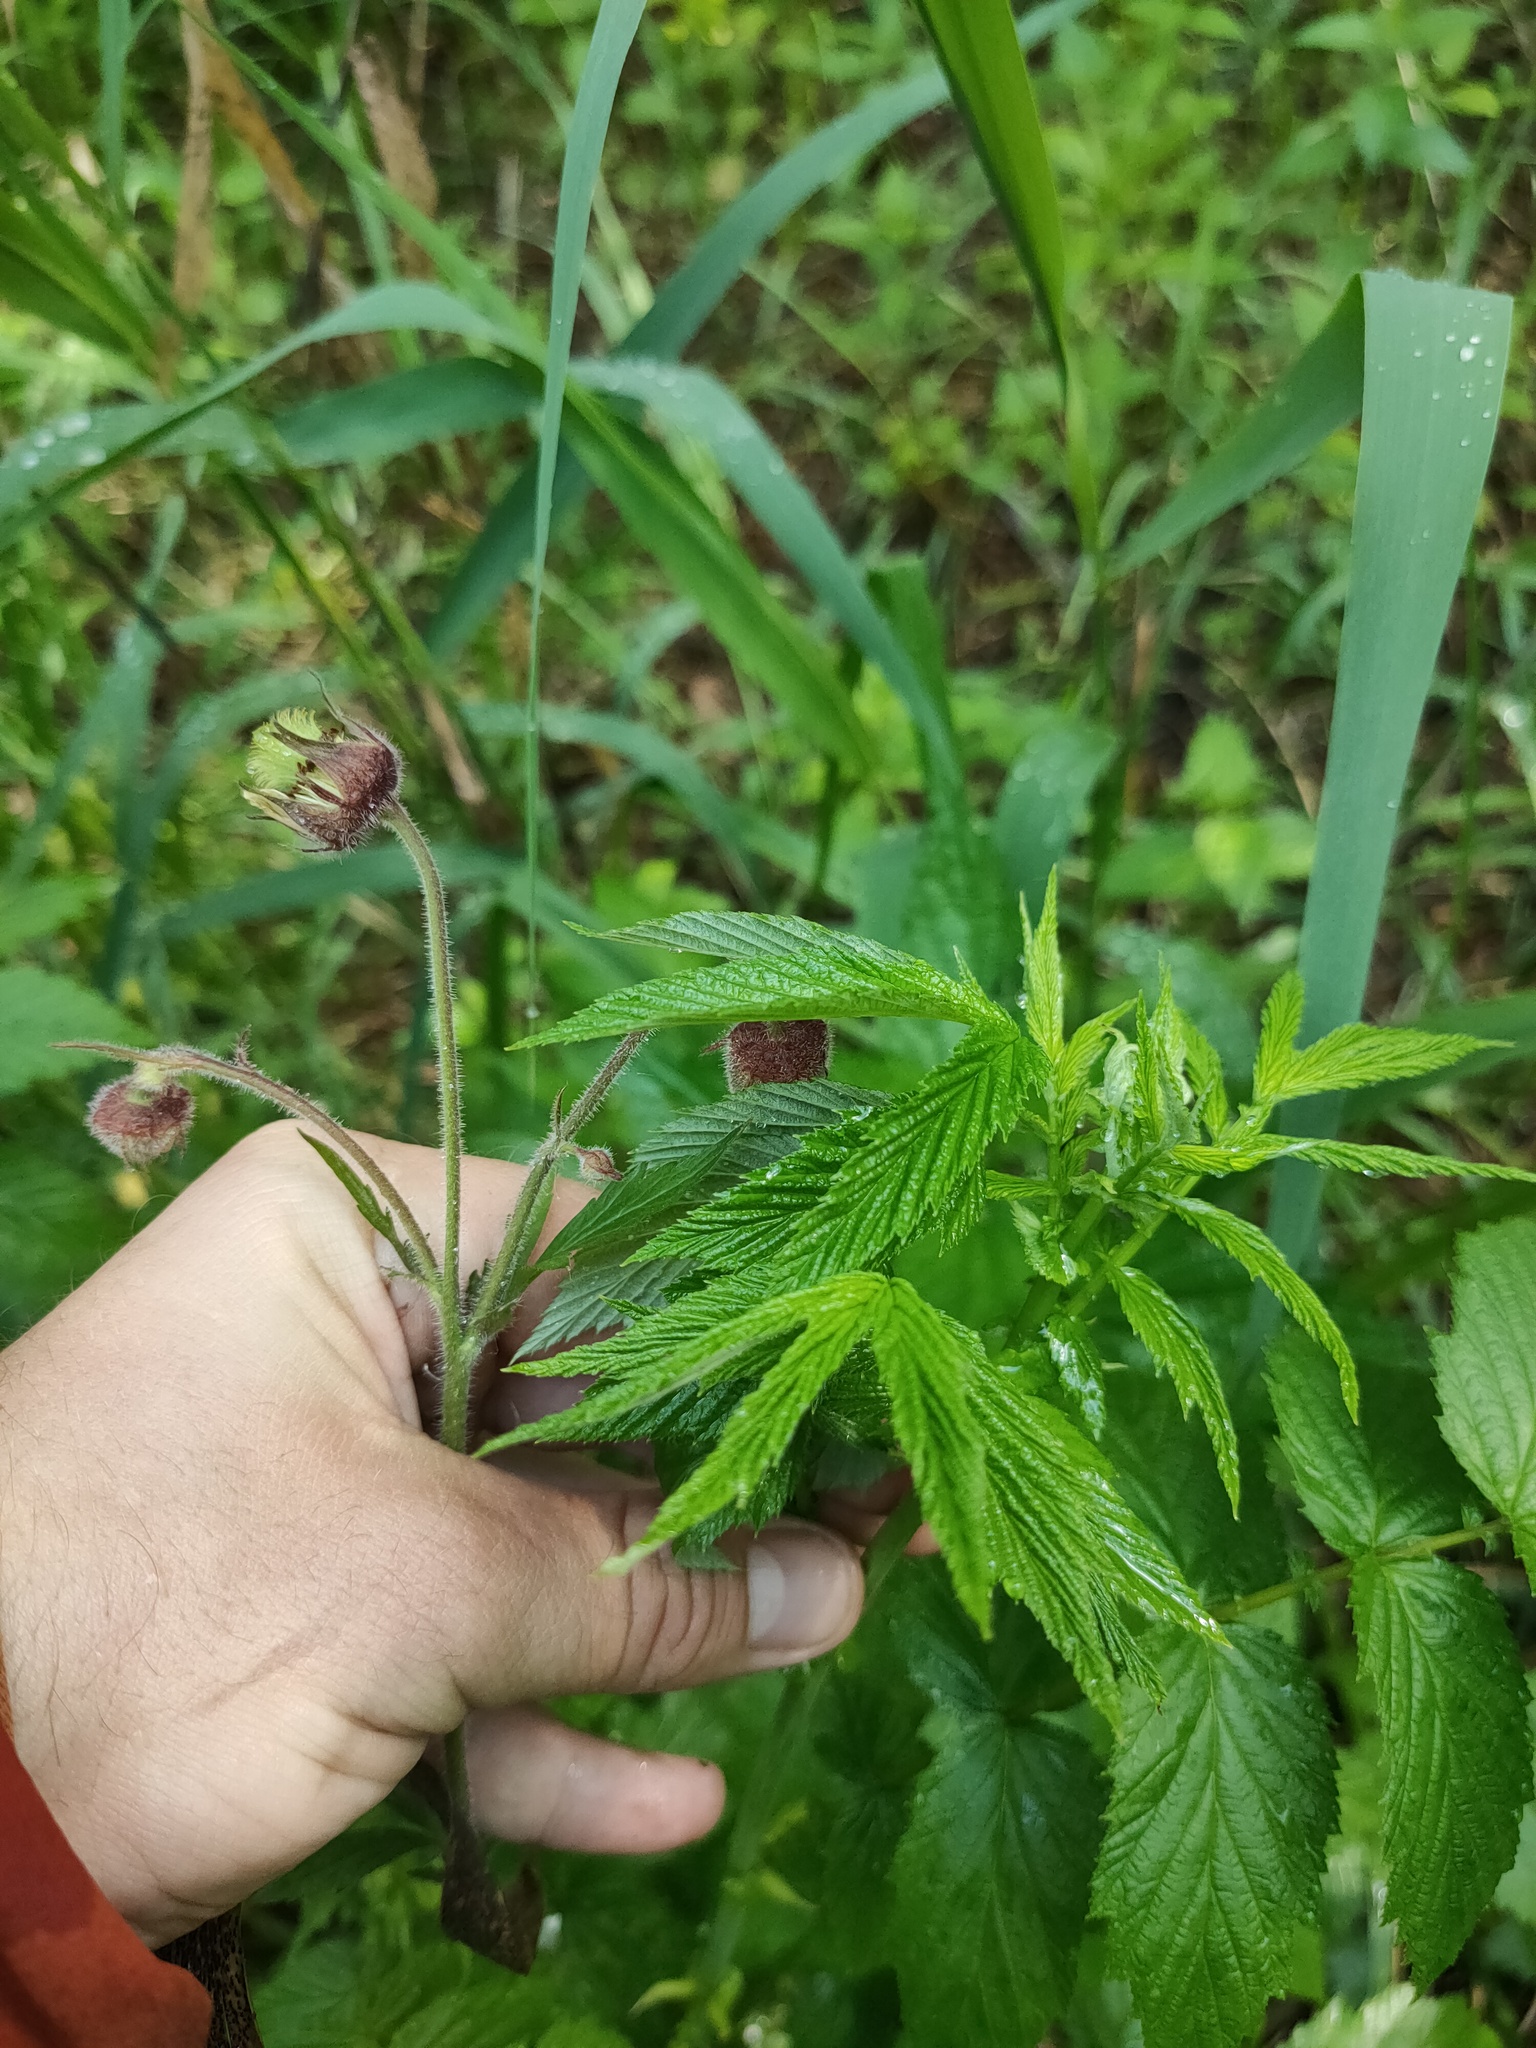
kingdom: Plantae
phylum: Tracheophyta
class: Magnoliopsida
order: Rosales
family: Rosaceae
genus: Geum
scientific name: Geum rivale
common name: Water avens
